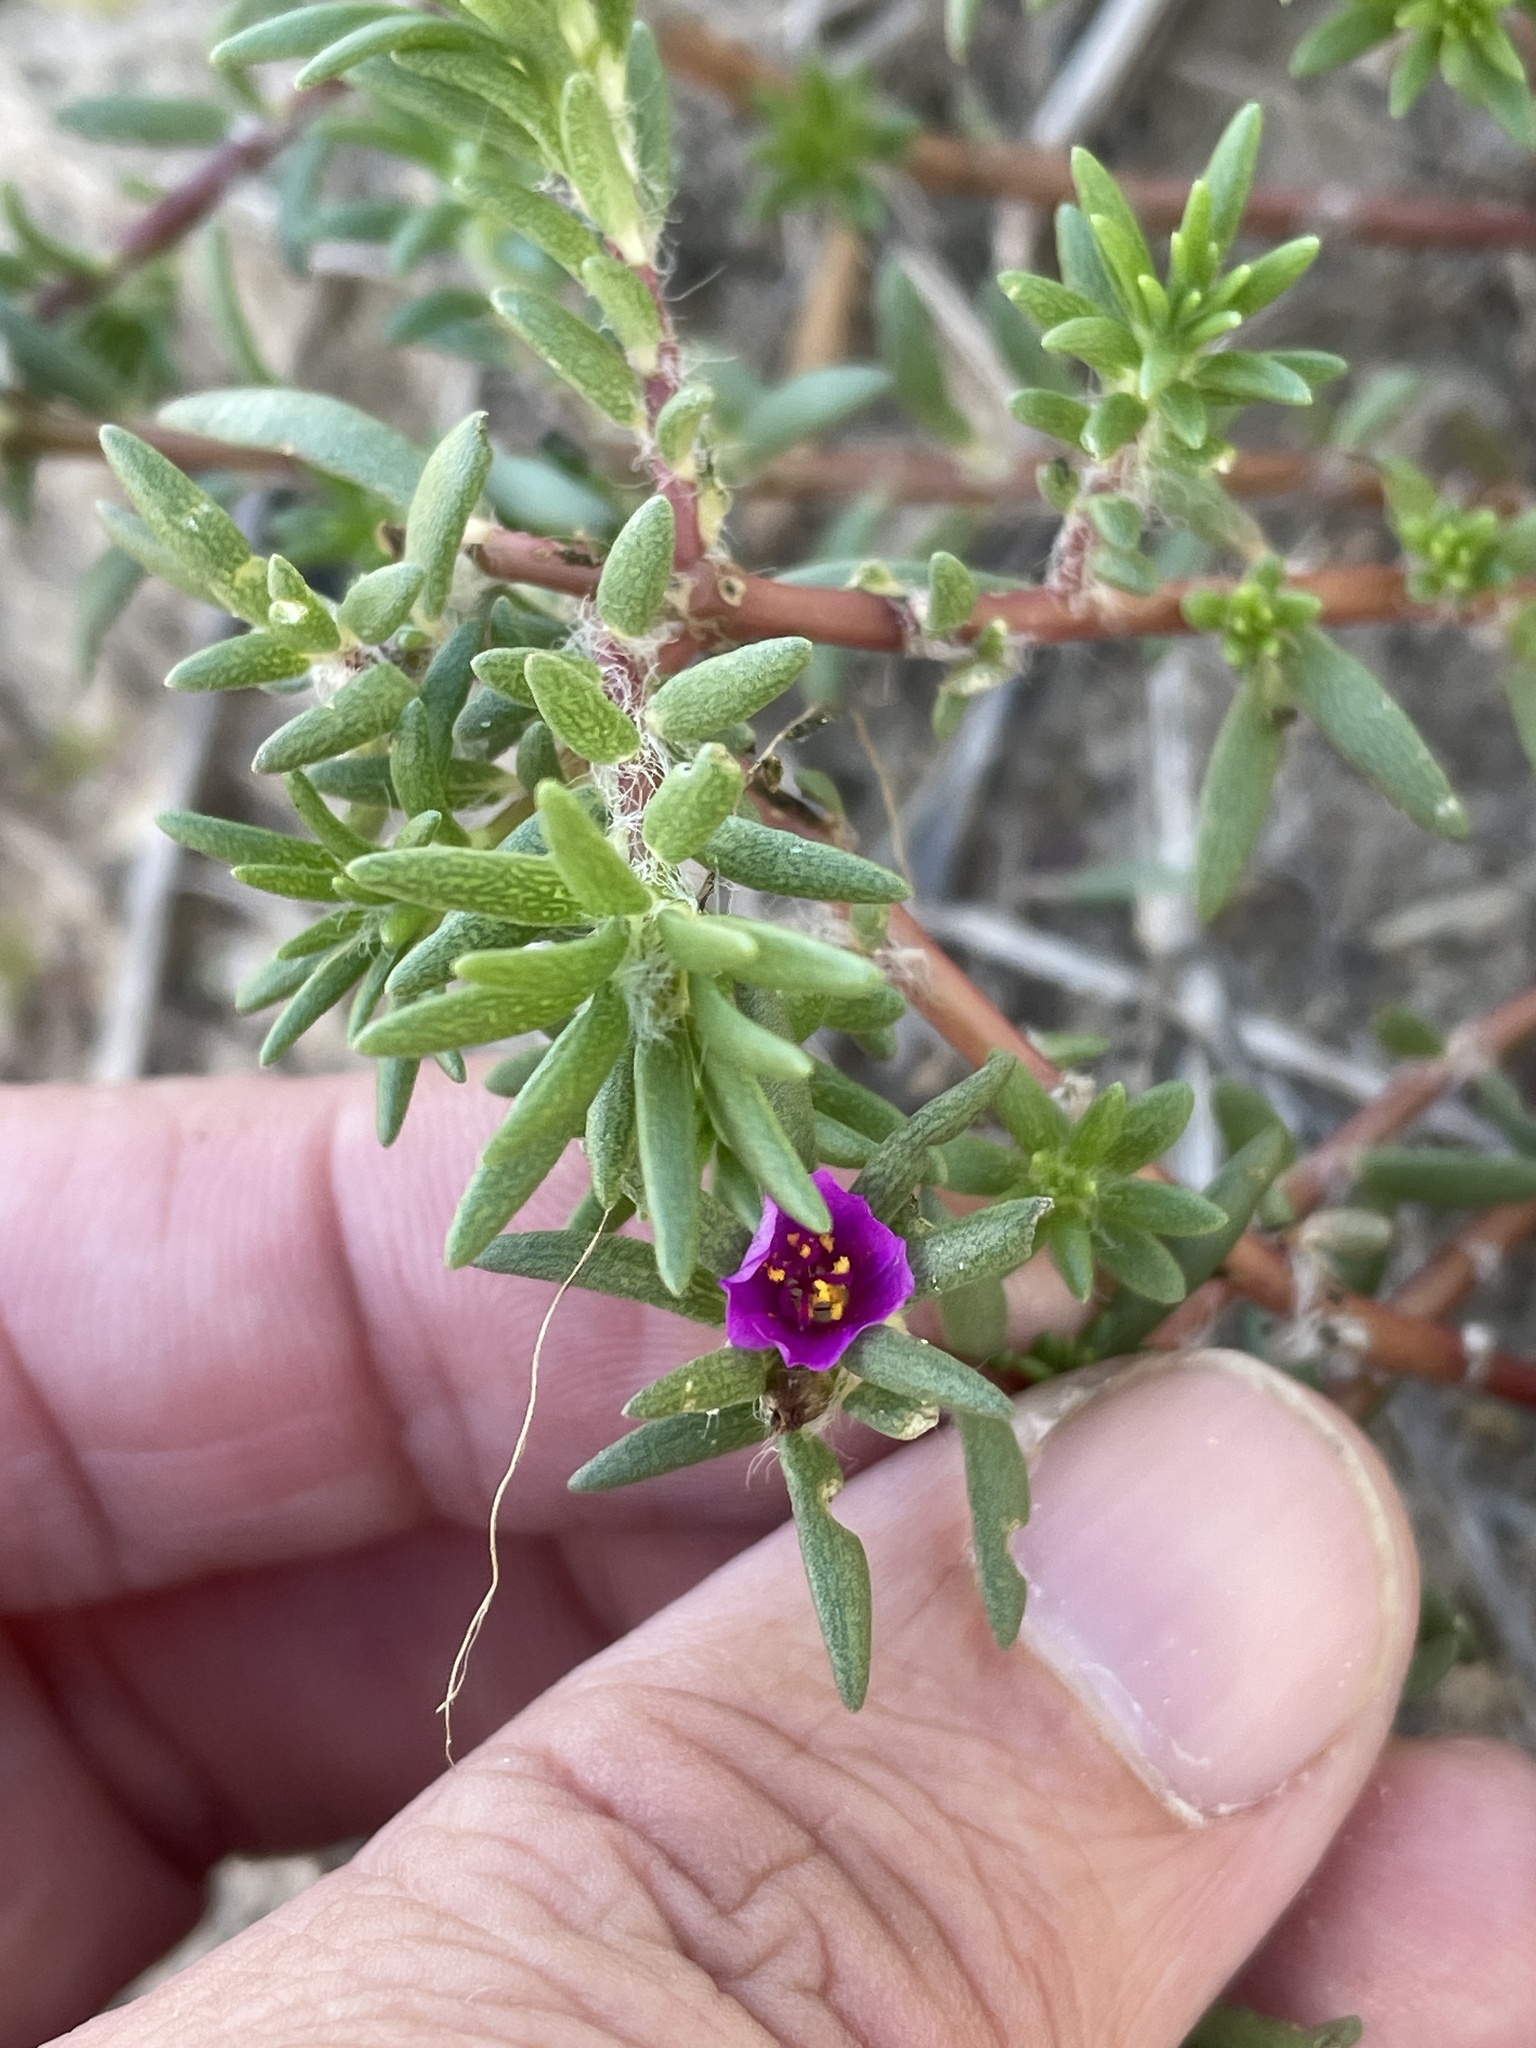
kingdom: Plantae
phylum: Tracheophyta
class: Magnoliopsida
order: Caryophyllales
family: Portulacaceae
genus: Portulaca
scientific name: Portulaca pilosa
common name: Kiss me quick
